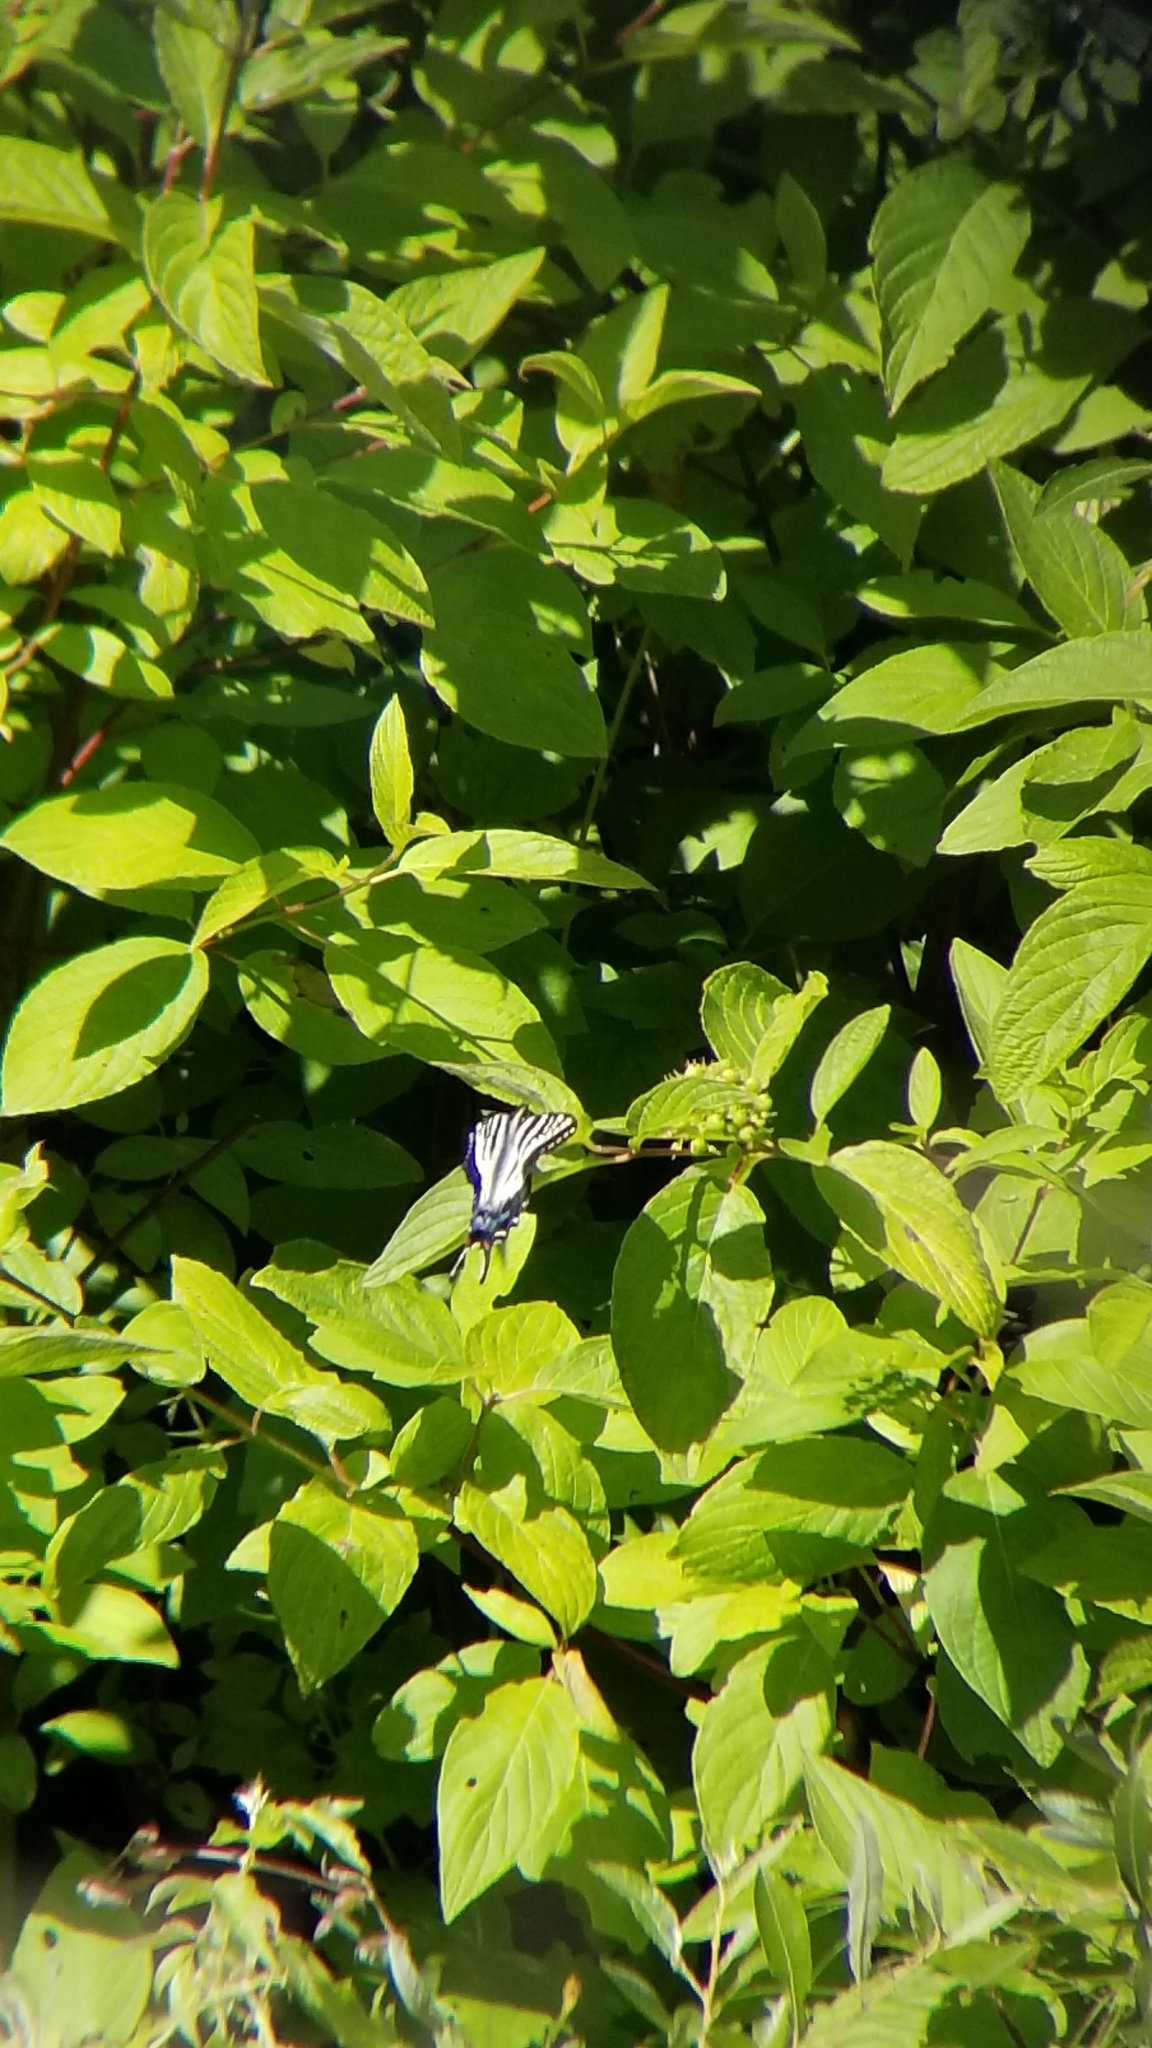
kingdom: Animalia
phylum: Arthropoda
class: Insecta
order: Lepidoptera
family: Papilionidae
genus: Papilio
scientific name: Papilio eurymedon
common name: Pale tiger swallowtail
